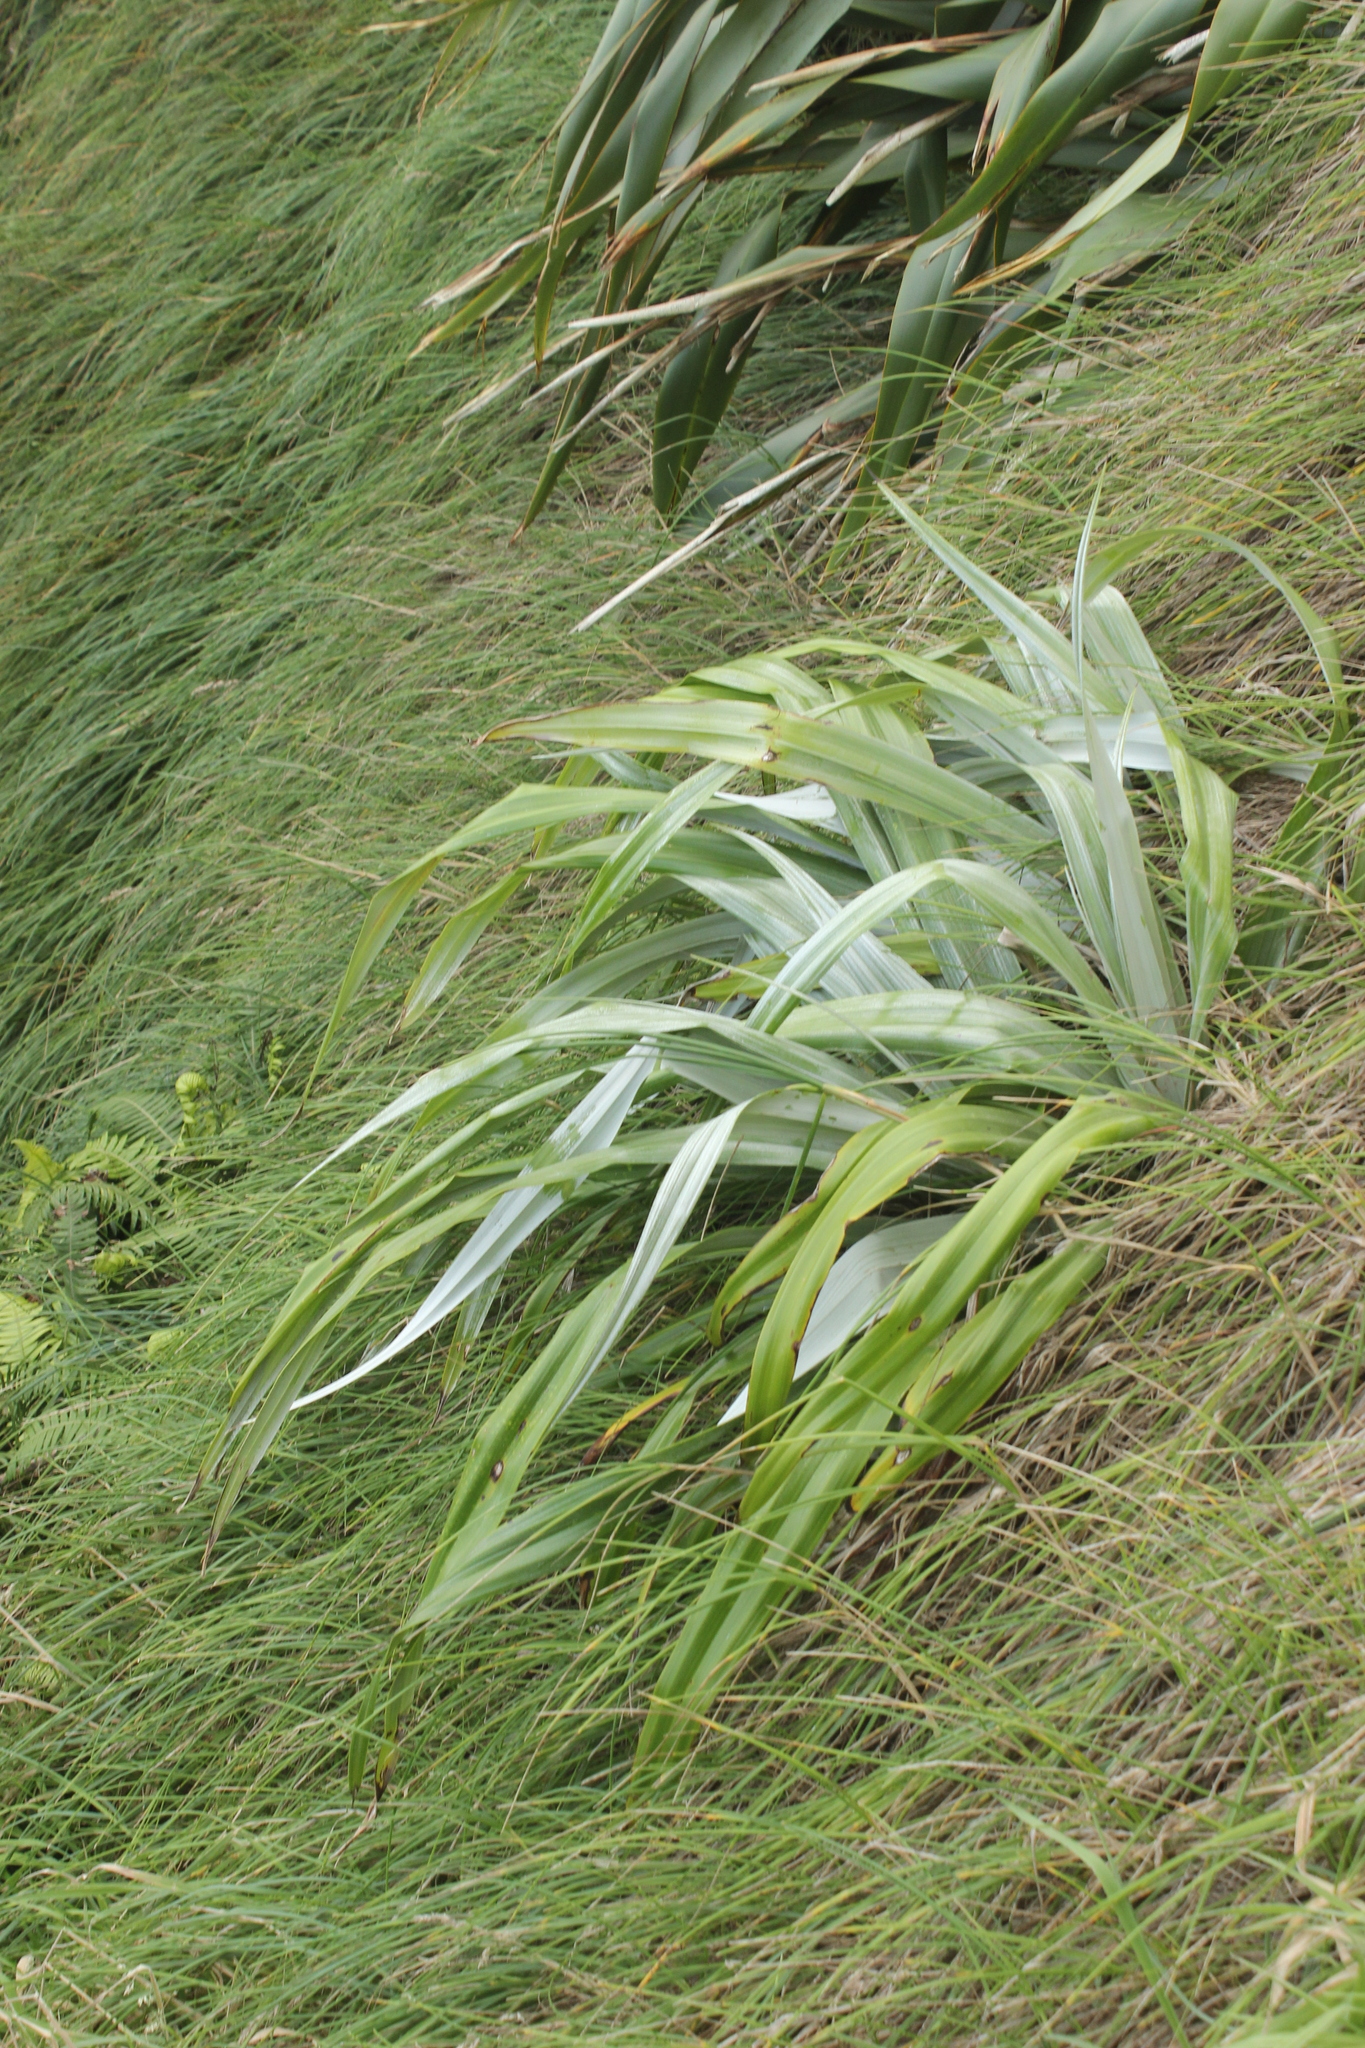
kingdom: Plantae
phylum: Tracheophyta
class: Liliopsida
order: Asparagales
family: Asteliaceae
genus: Astelia
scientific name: Astelia chathamica
